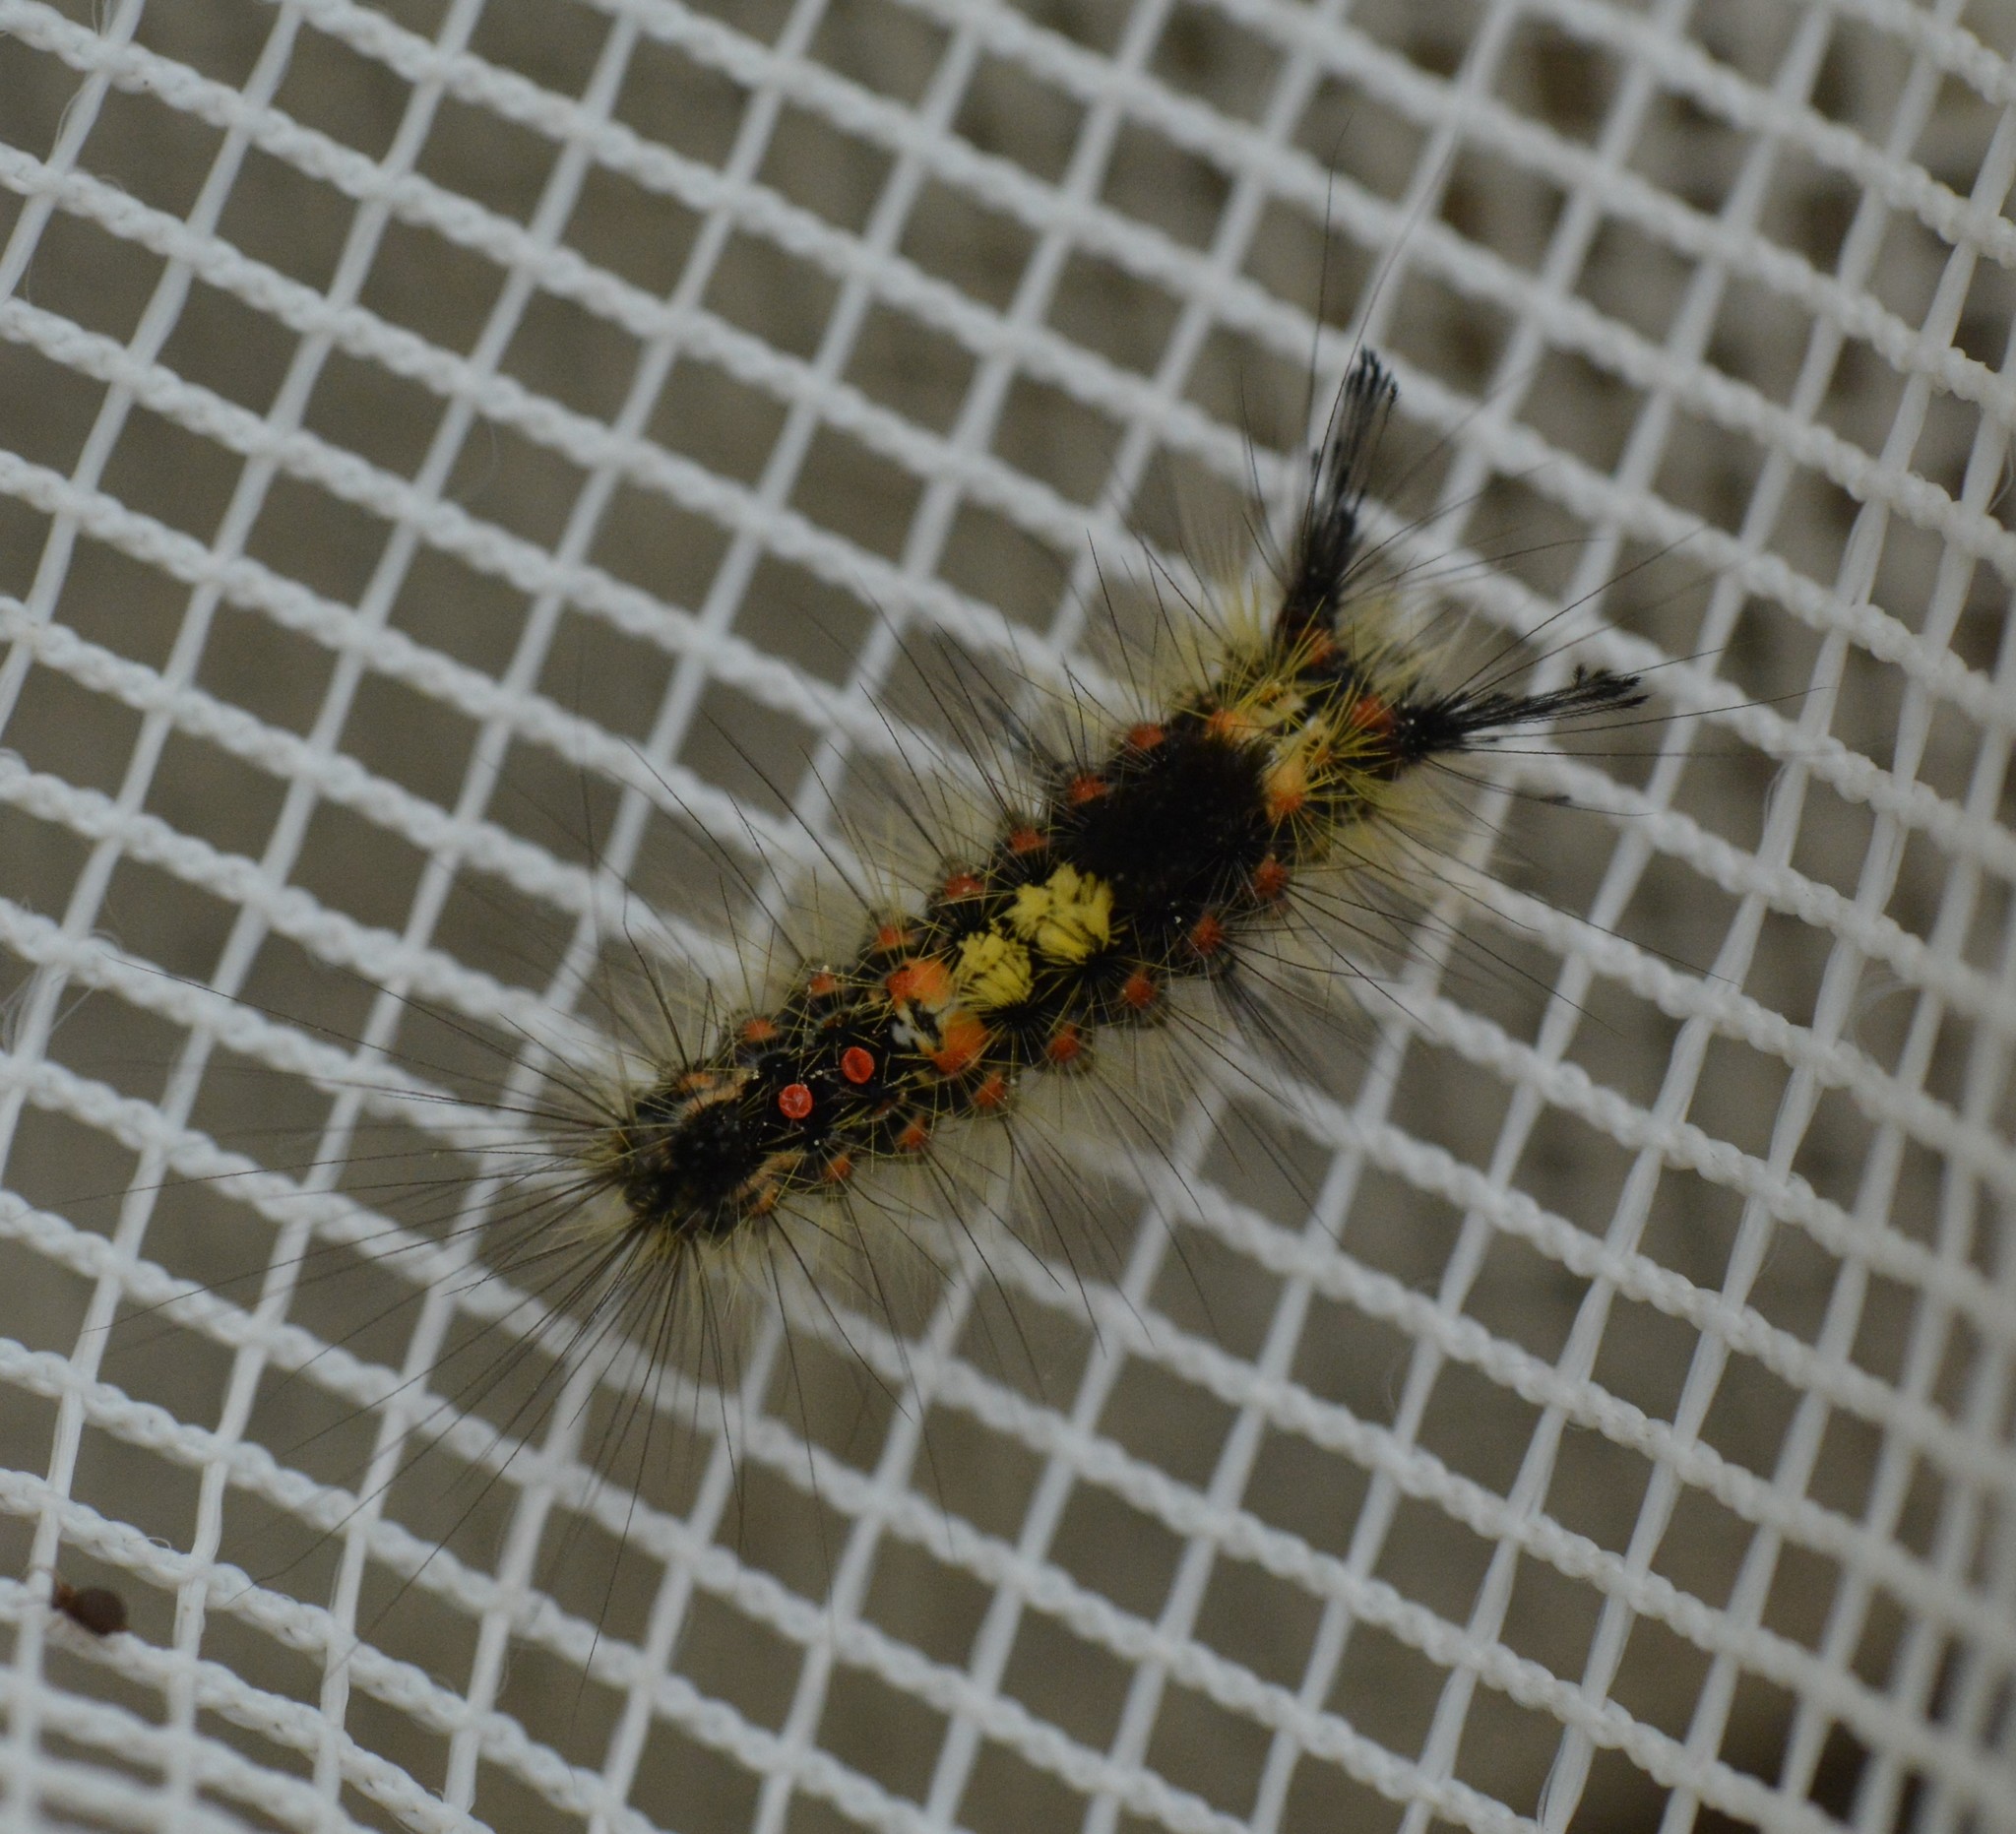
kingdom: Animalia
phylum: Arthropoda
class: Insecta
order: Lepidoptera
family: Erebidae
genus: Orgyia
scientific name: Orgyia antiqua
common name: Vapourer
